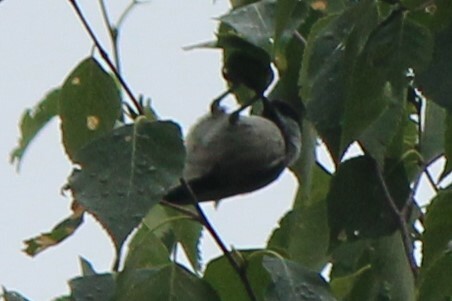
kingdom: Animalia
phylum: Chordata
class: Aves
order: Passeriformes
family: Paridae
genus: Poecile
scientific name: Poecile atricapillus
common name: Black-capped chickadee
